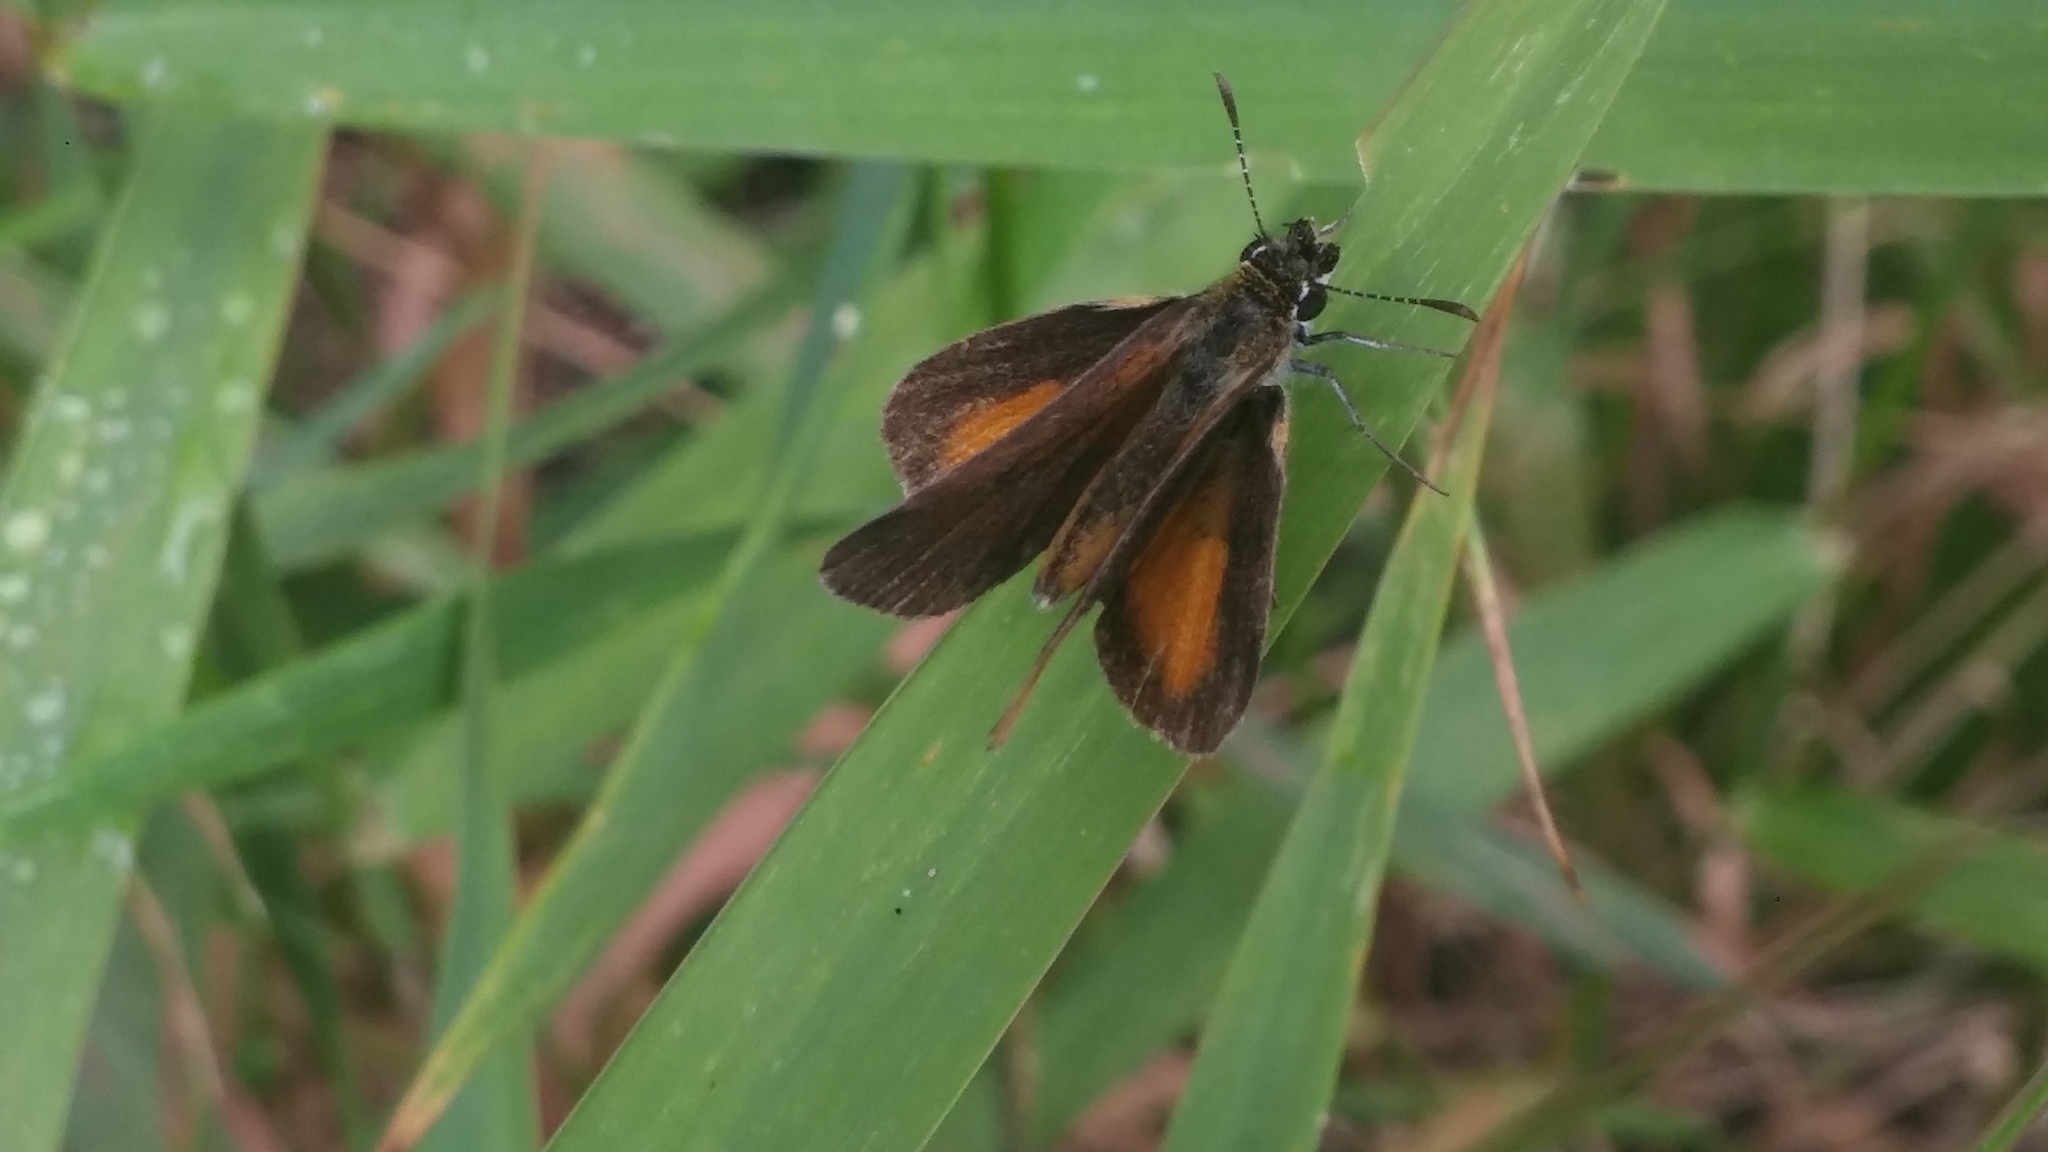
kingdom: Animalia
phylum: Arthropoda
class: Insecta
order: Lepidoptera
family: Hesperiidae
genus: Ancyloxypha
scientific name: Ancyloxypha numitor
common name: Least skipper
